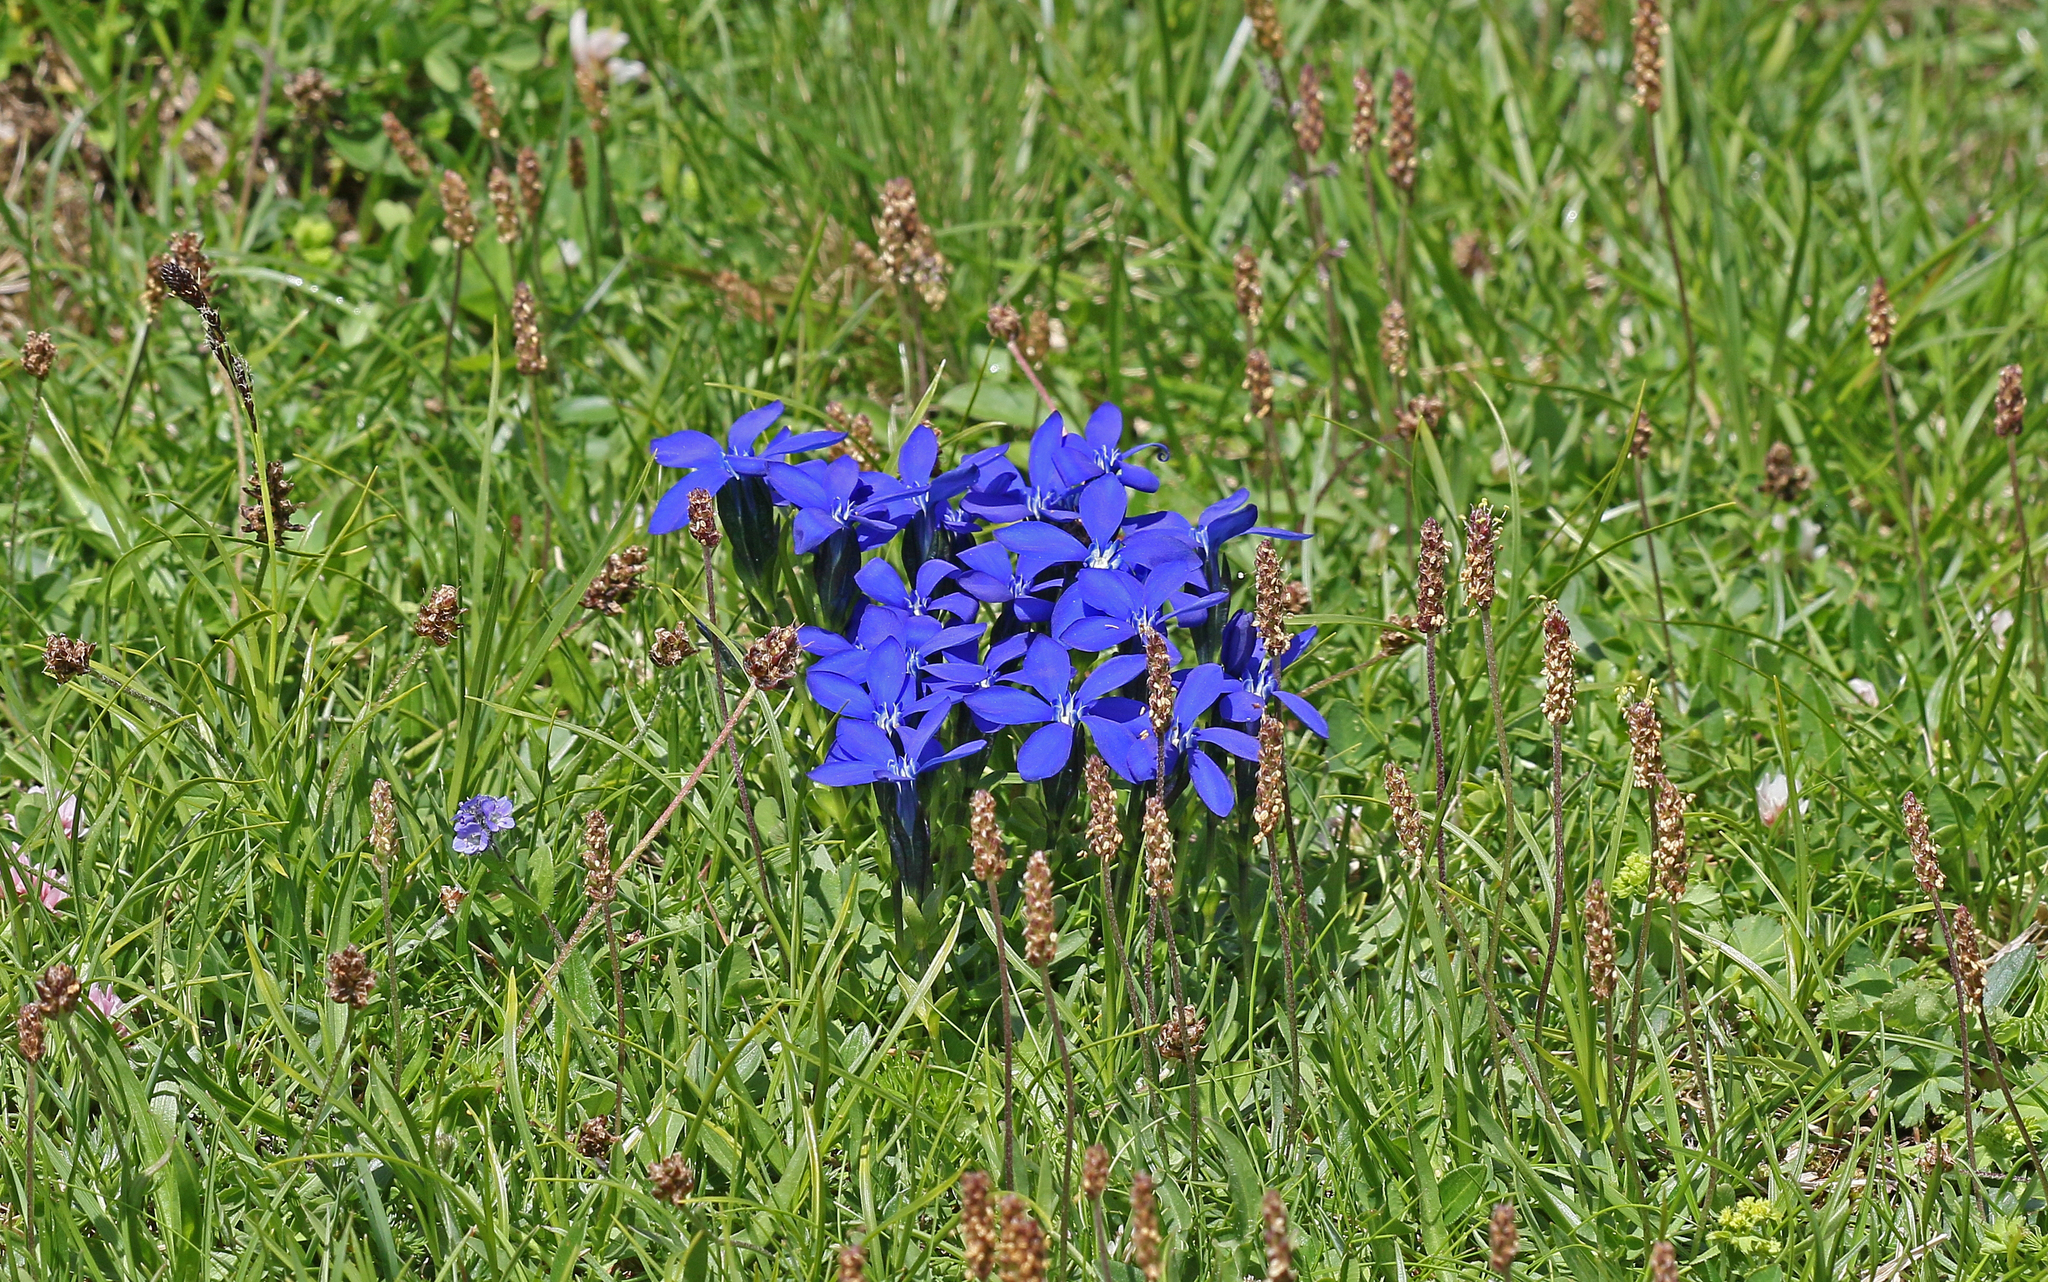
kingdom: Plantae
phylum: Tracheophyta
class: Magnoliopsida
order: Gentianales
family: Gentianaceae
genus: Gentiana
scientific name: Gentiana bavarica
